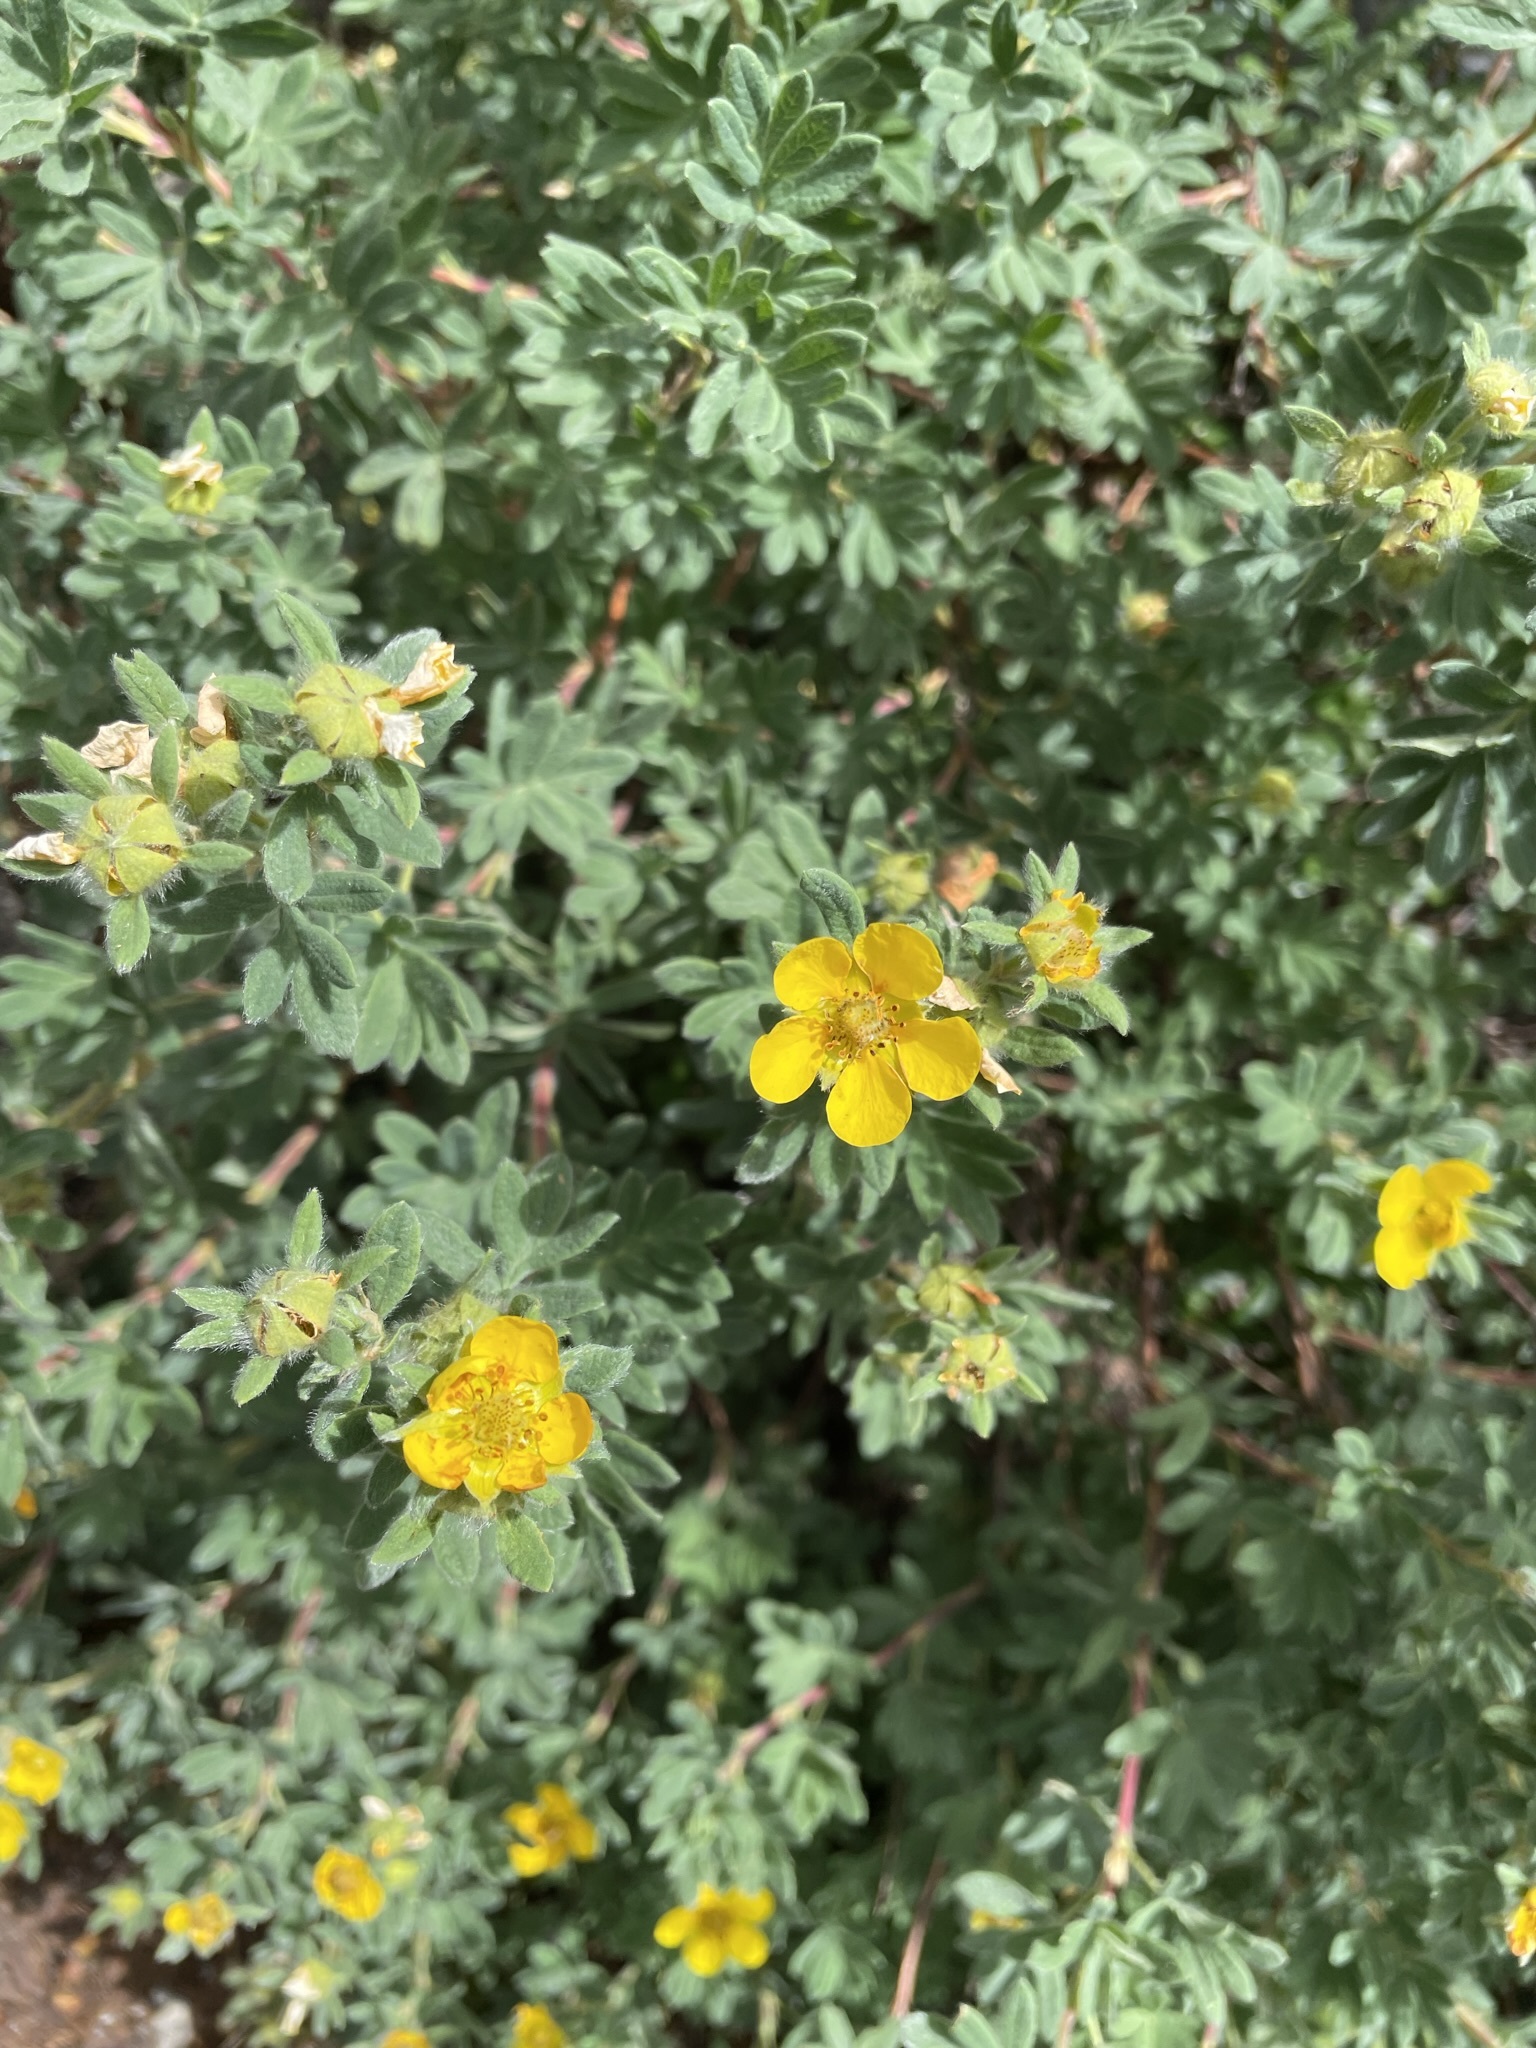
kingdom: Plantae
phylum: Tracheophyta
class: Magnoliopsida
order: Rosales
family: Rosaceae
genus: Dasiphora
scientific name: Dasiphora fruticosa
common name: Shrubby cinquefoil
